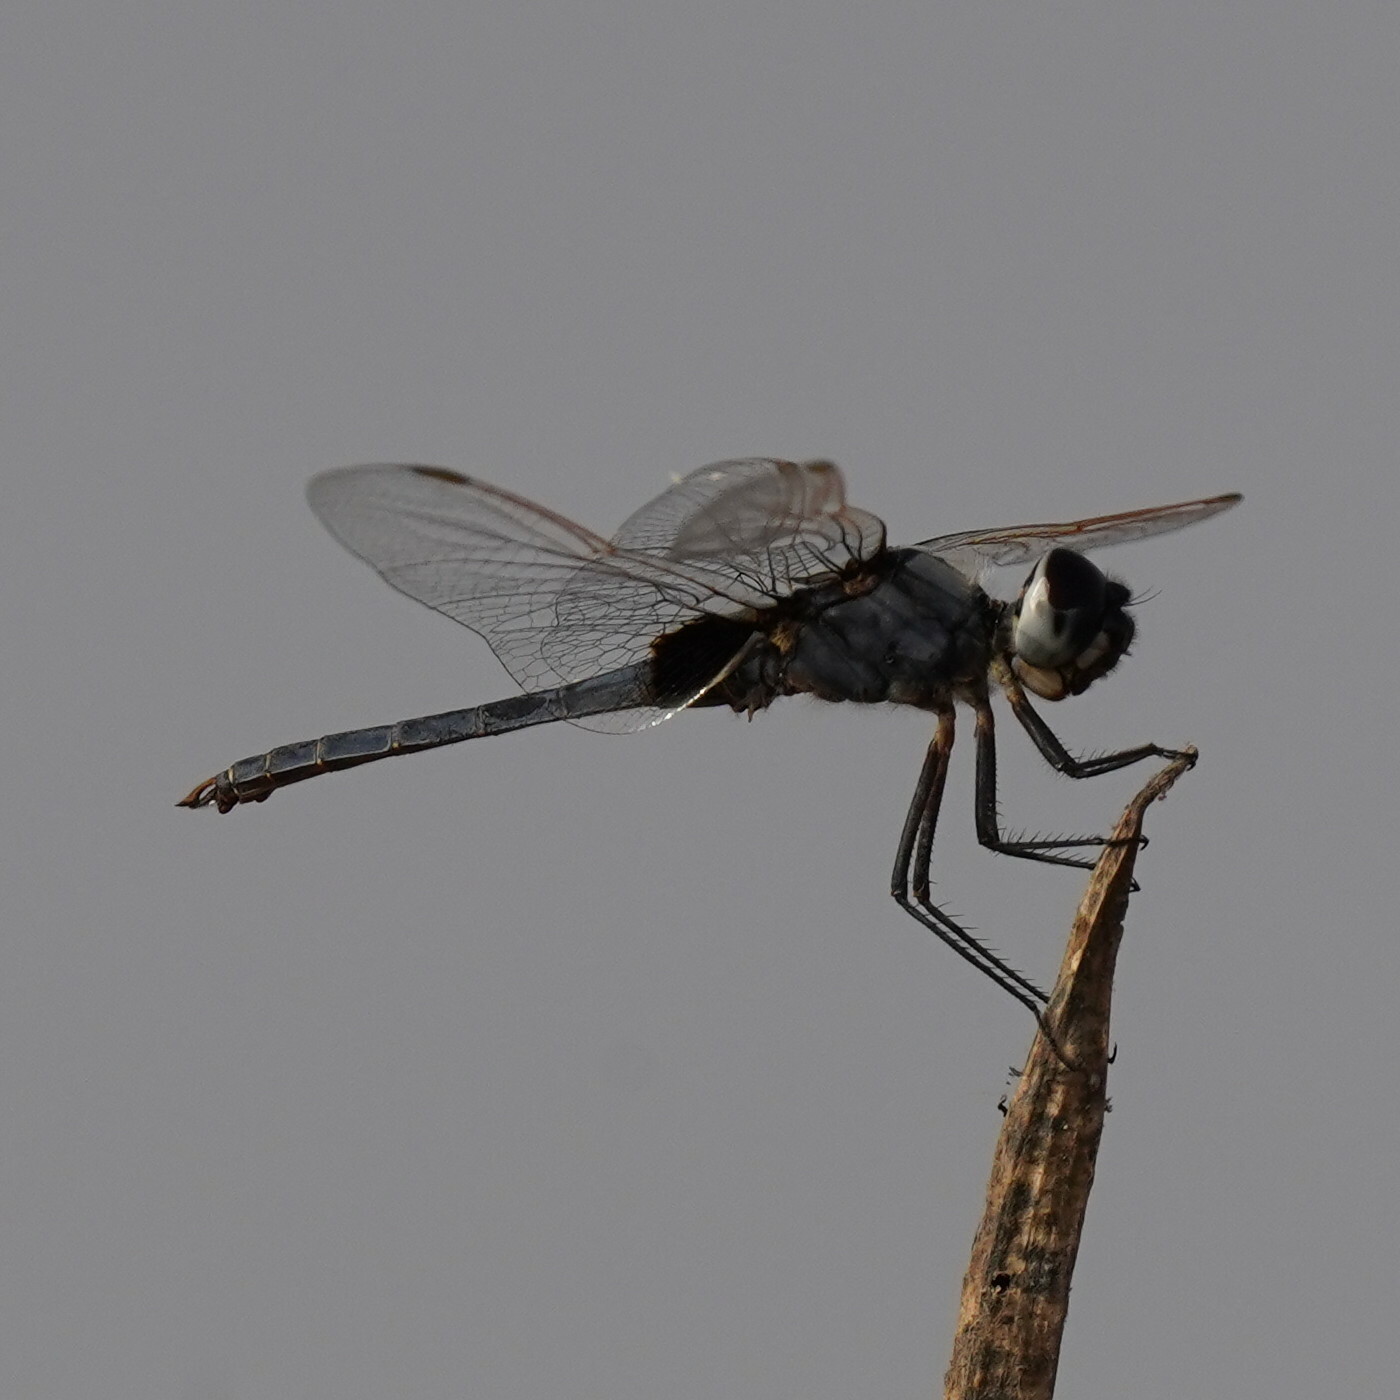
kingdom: Animalia
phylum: Arthropoda
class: Insecta
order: Odonata
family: Libellulidae
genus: Urothemis
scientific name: Urothemis edwardsii
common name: Blue basker
